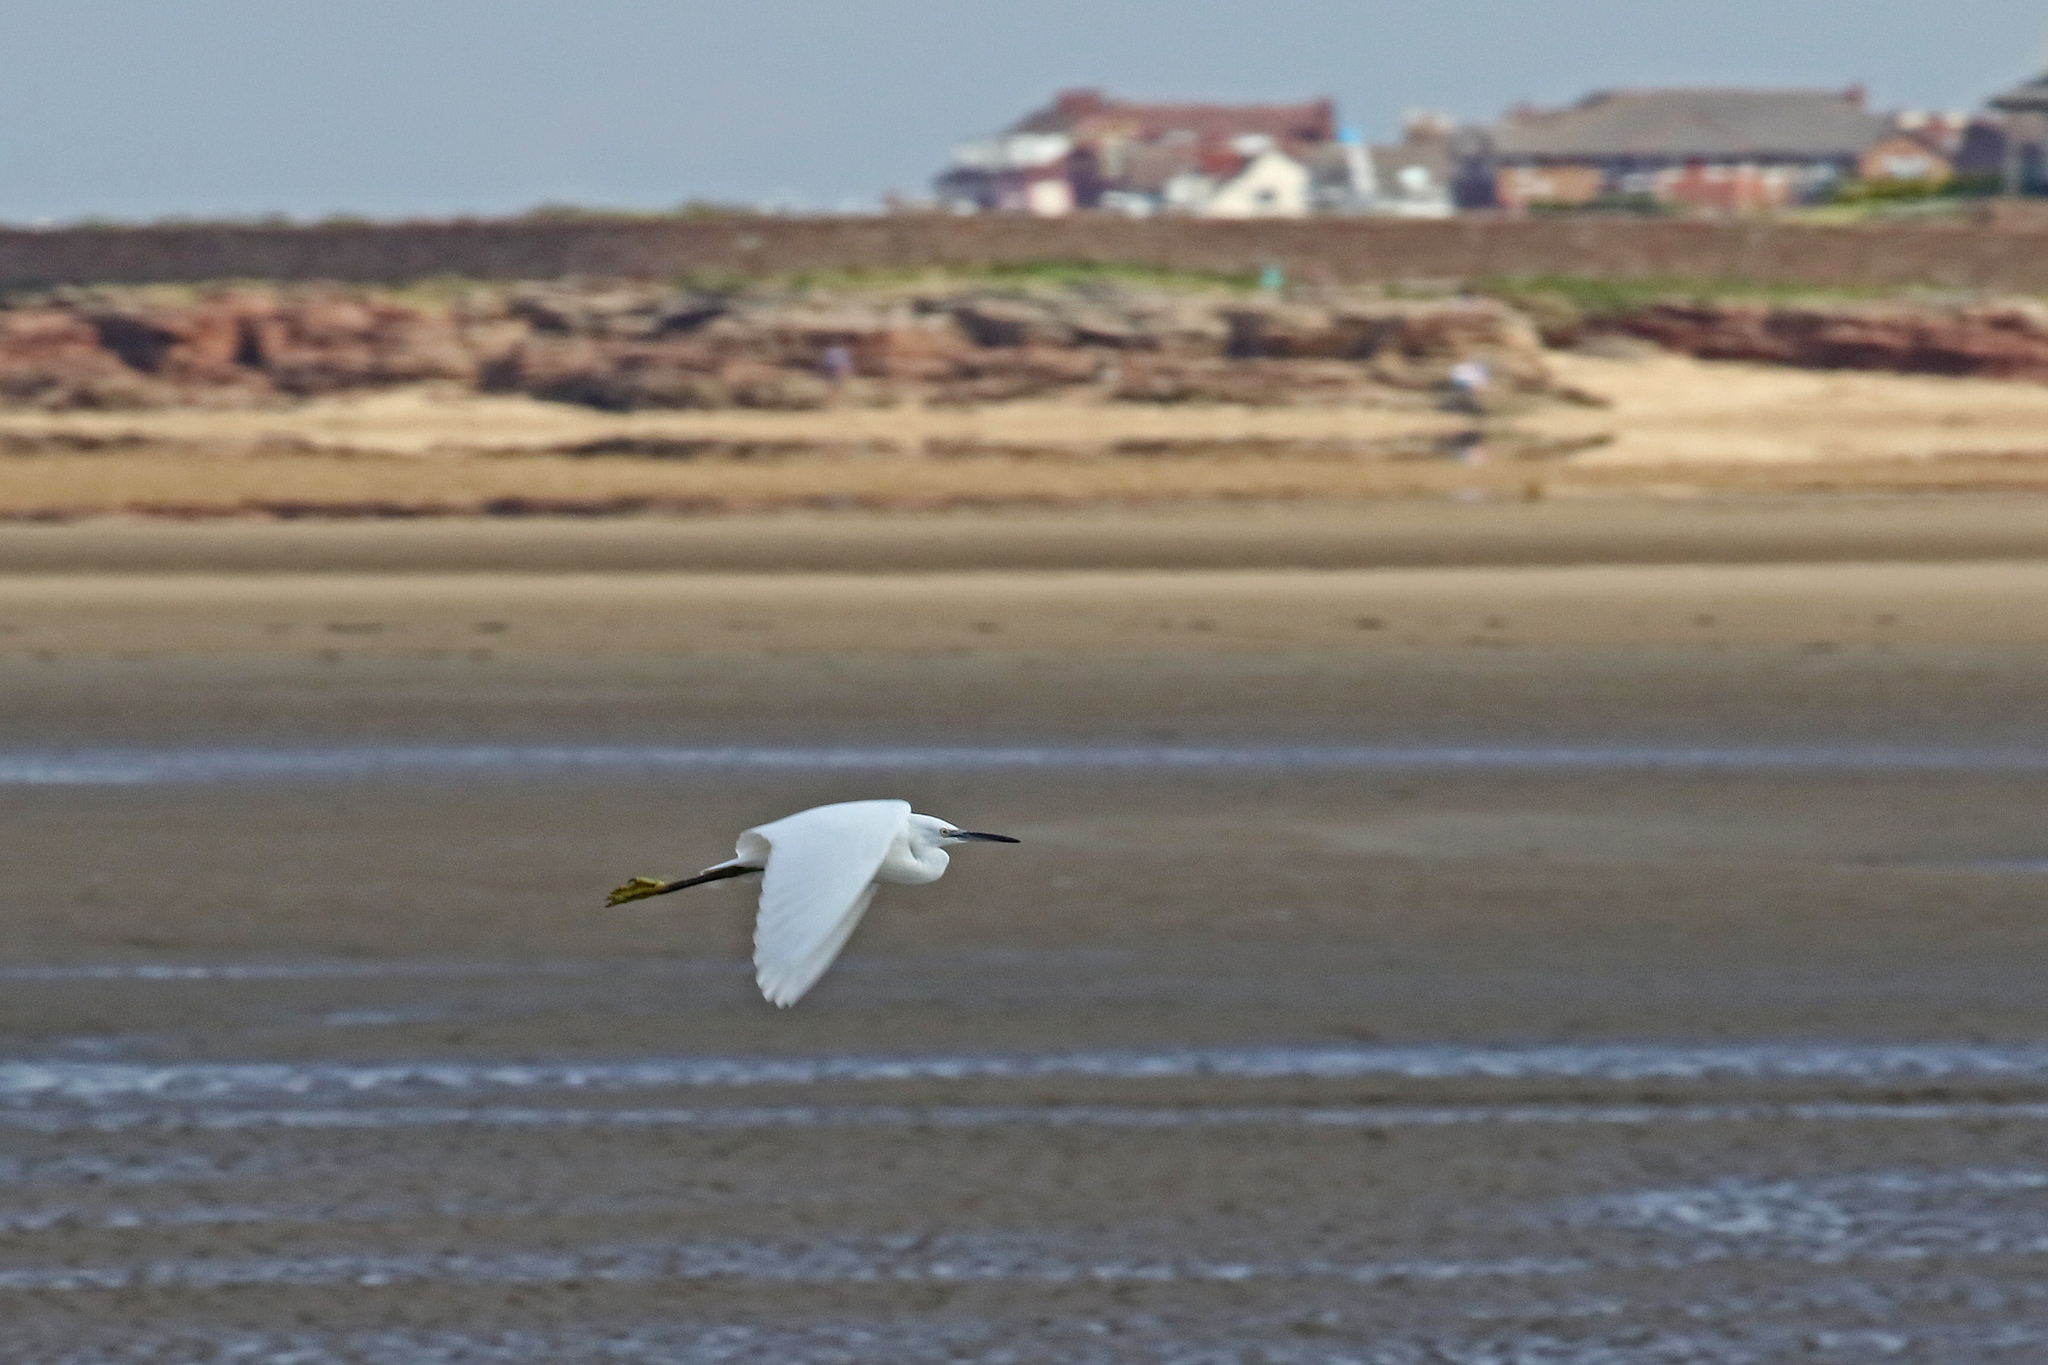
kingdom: Animalia
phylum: Chordata
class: Aves
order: Pelecaniformes
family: Ardeidae
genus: Egretta
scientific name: Egretta garzetta
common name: Little egret
